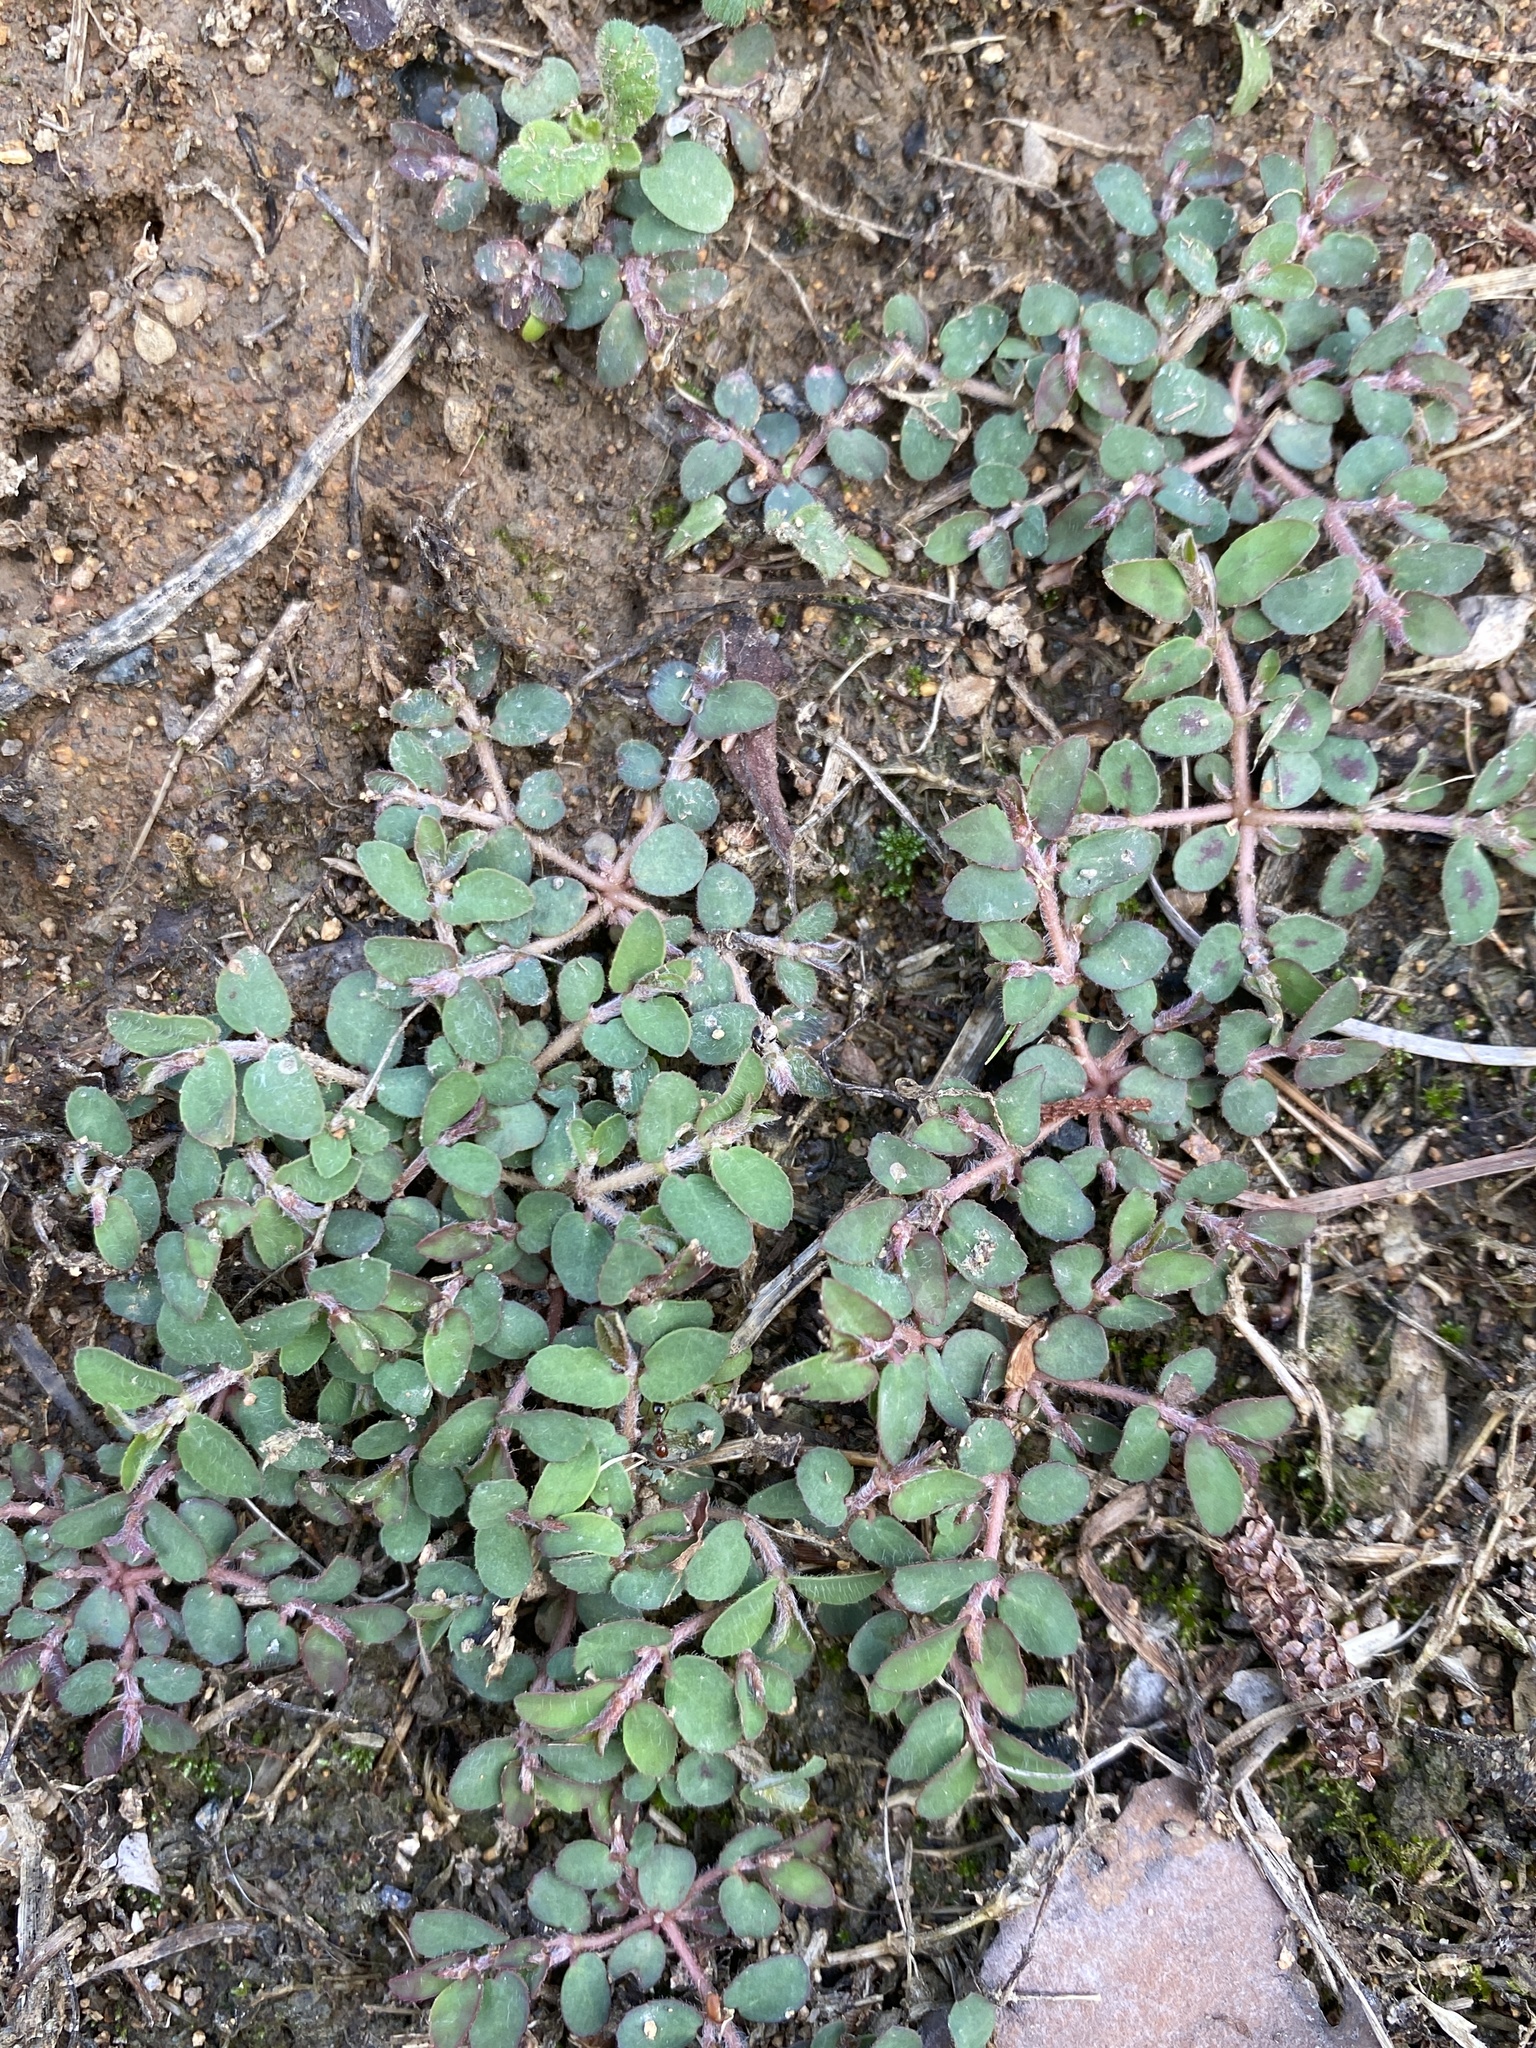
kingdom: Plantae
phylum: Tracheophyta
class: Magnoliopsida
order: Malpighiales
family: Euphorbiaceae
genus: Euphorbia
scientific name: Euphorbia maculata
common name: Spotted spurge
